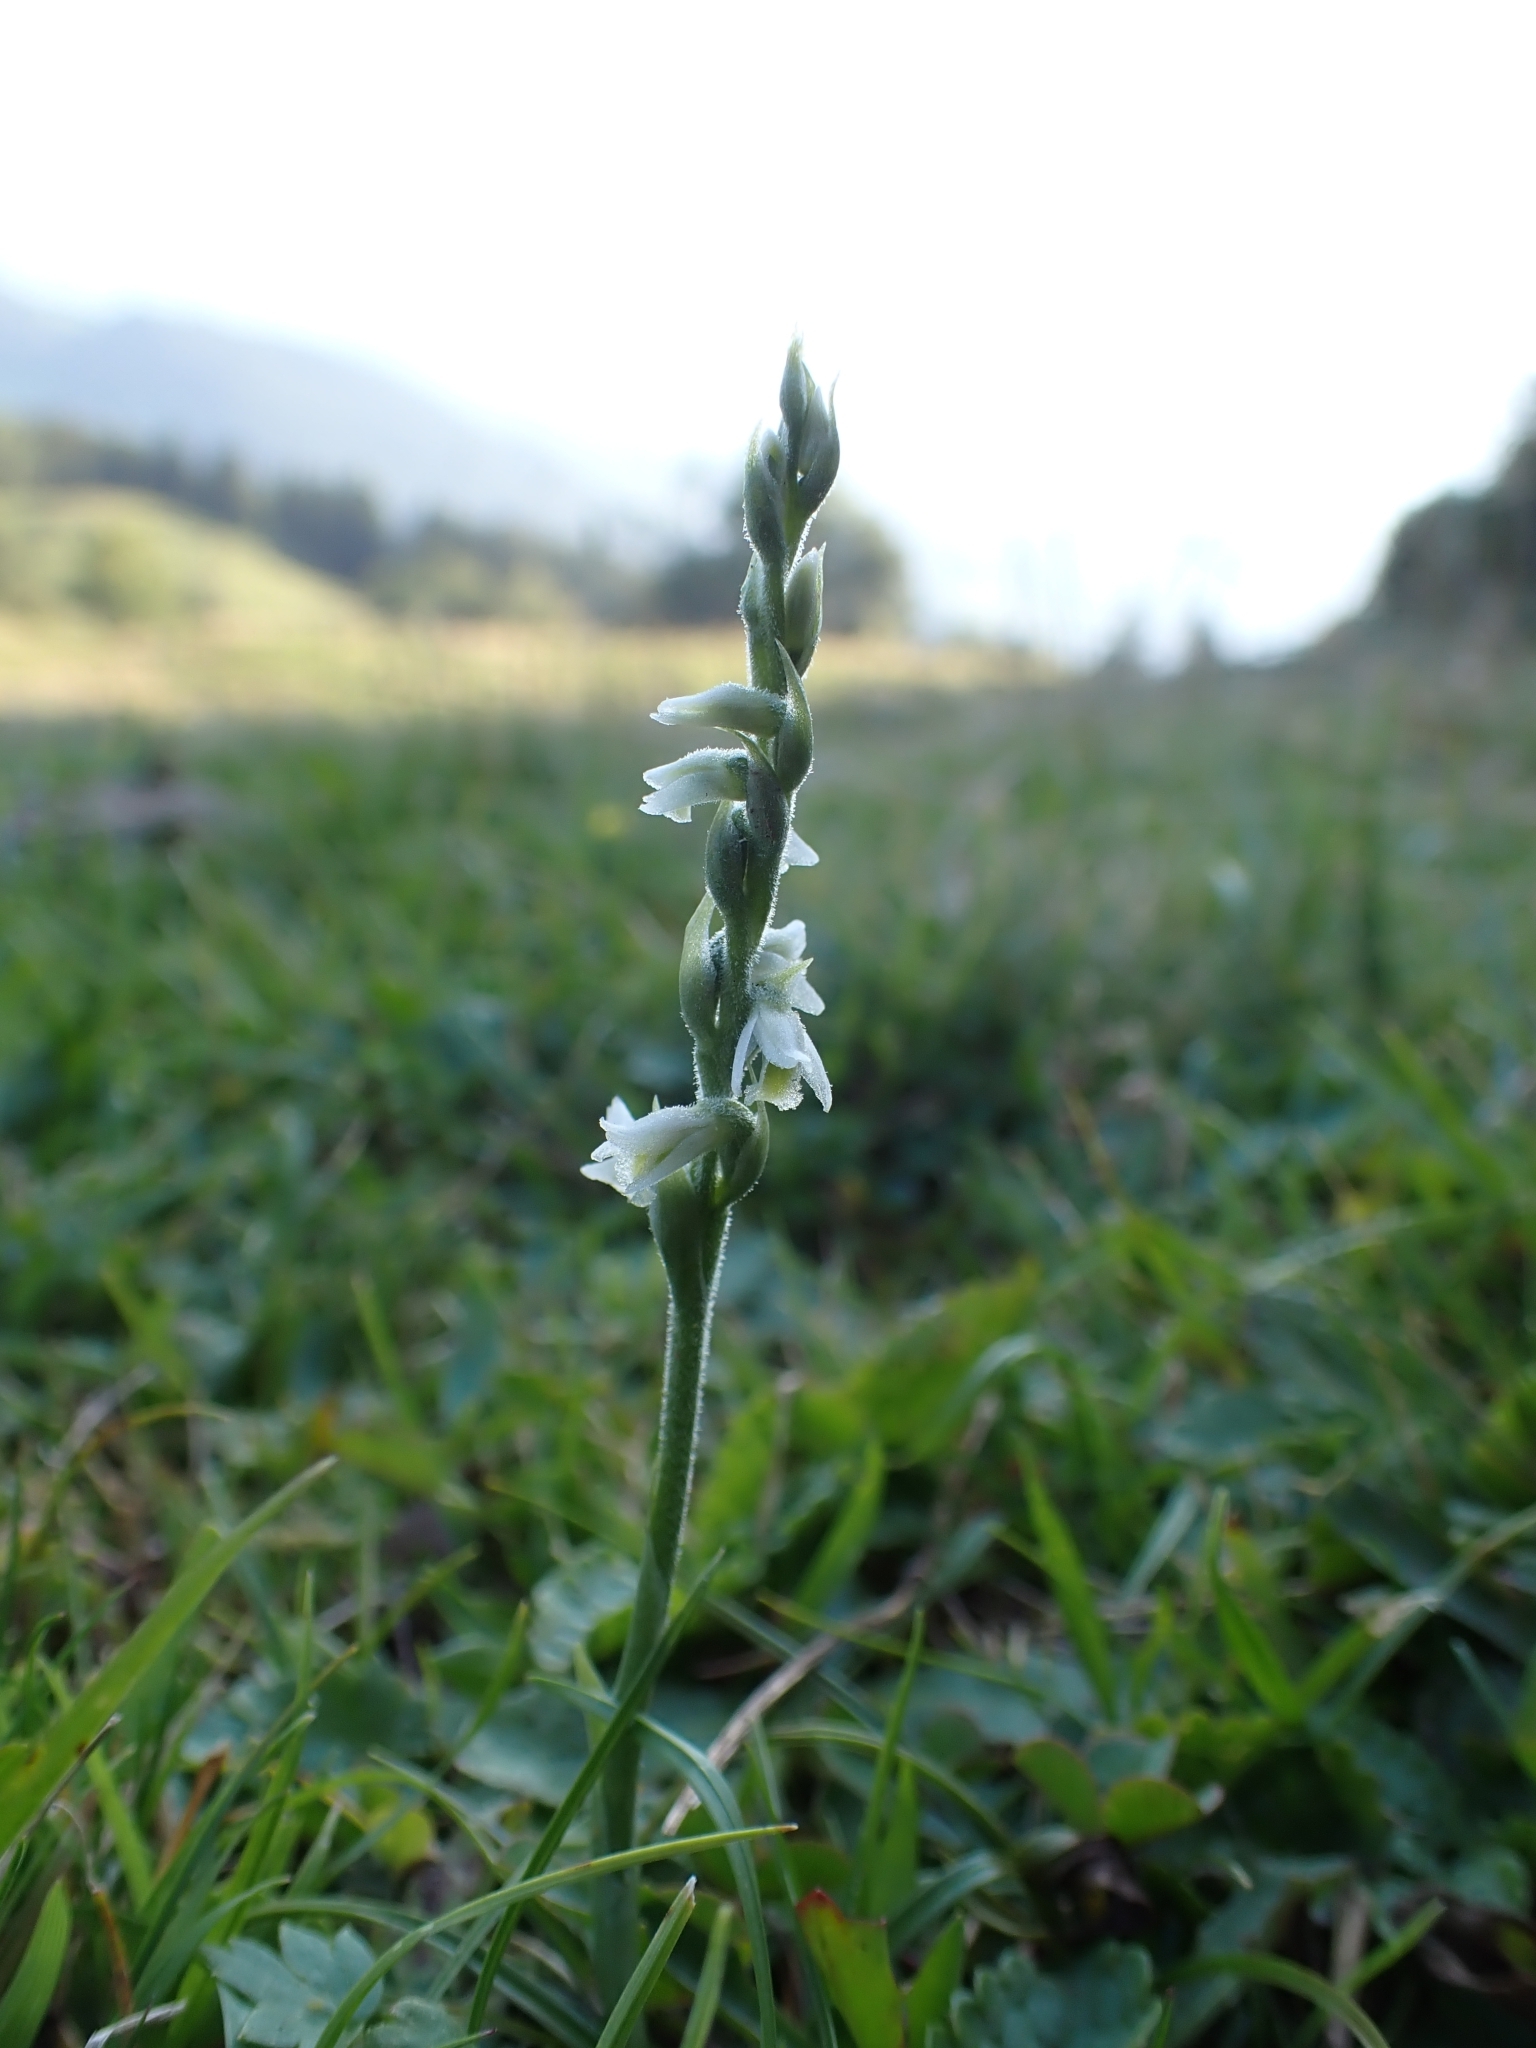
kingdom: Plantae
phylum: Tracheophyta
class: Liliopsida
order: Asparagales
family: Orchidaceae
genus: Spiranthes
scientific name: Spiranthes spiralis
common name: Autumn lady's-tresses
